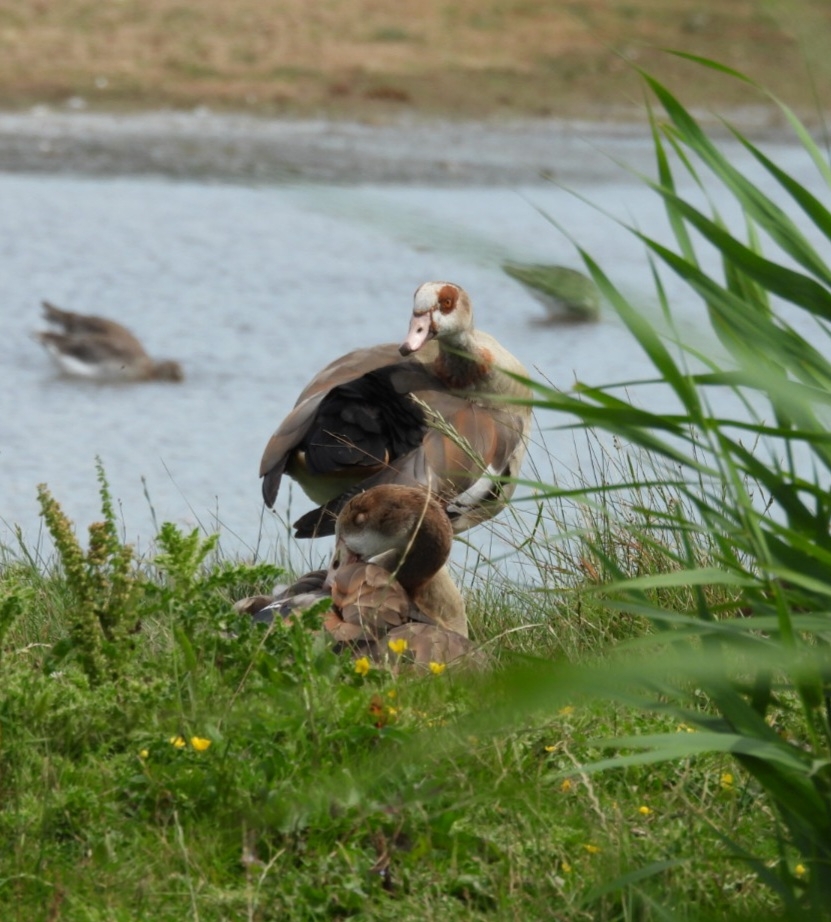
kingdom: Animalia
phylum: Chordata
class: Aves
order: Anseriformes
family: Anatidae
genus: Alopochen
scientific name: Alopochen aegyptiaca
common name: Egyptian goose
